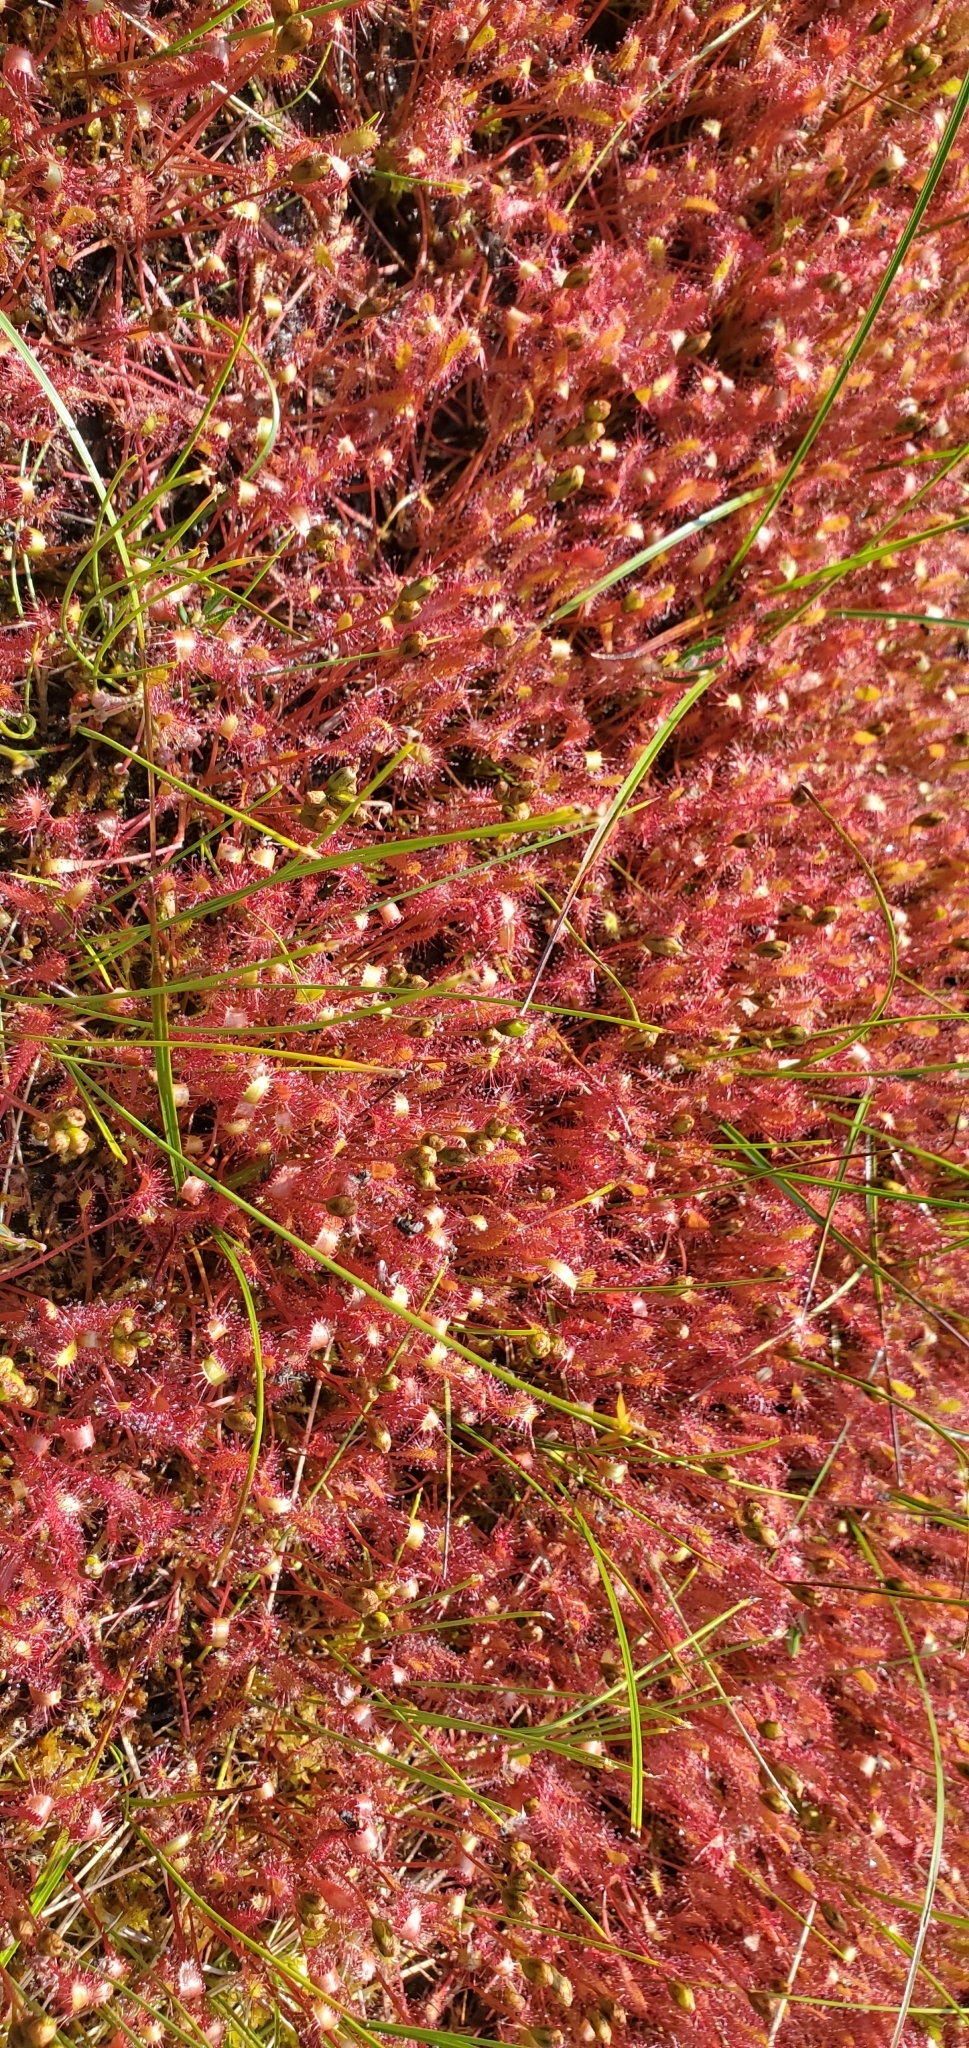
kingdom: Plantae
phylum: Tracheophyta
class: Magnoliopsida
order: Caryophyllales
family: Droseraceae
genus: Drosera
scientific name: Drosera anglica
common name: Great sundew
